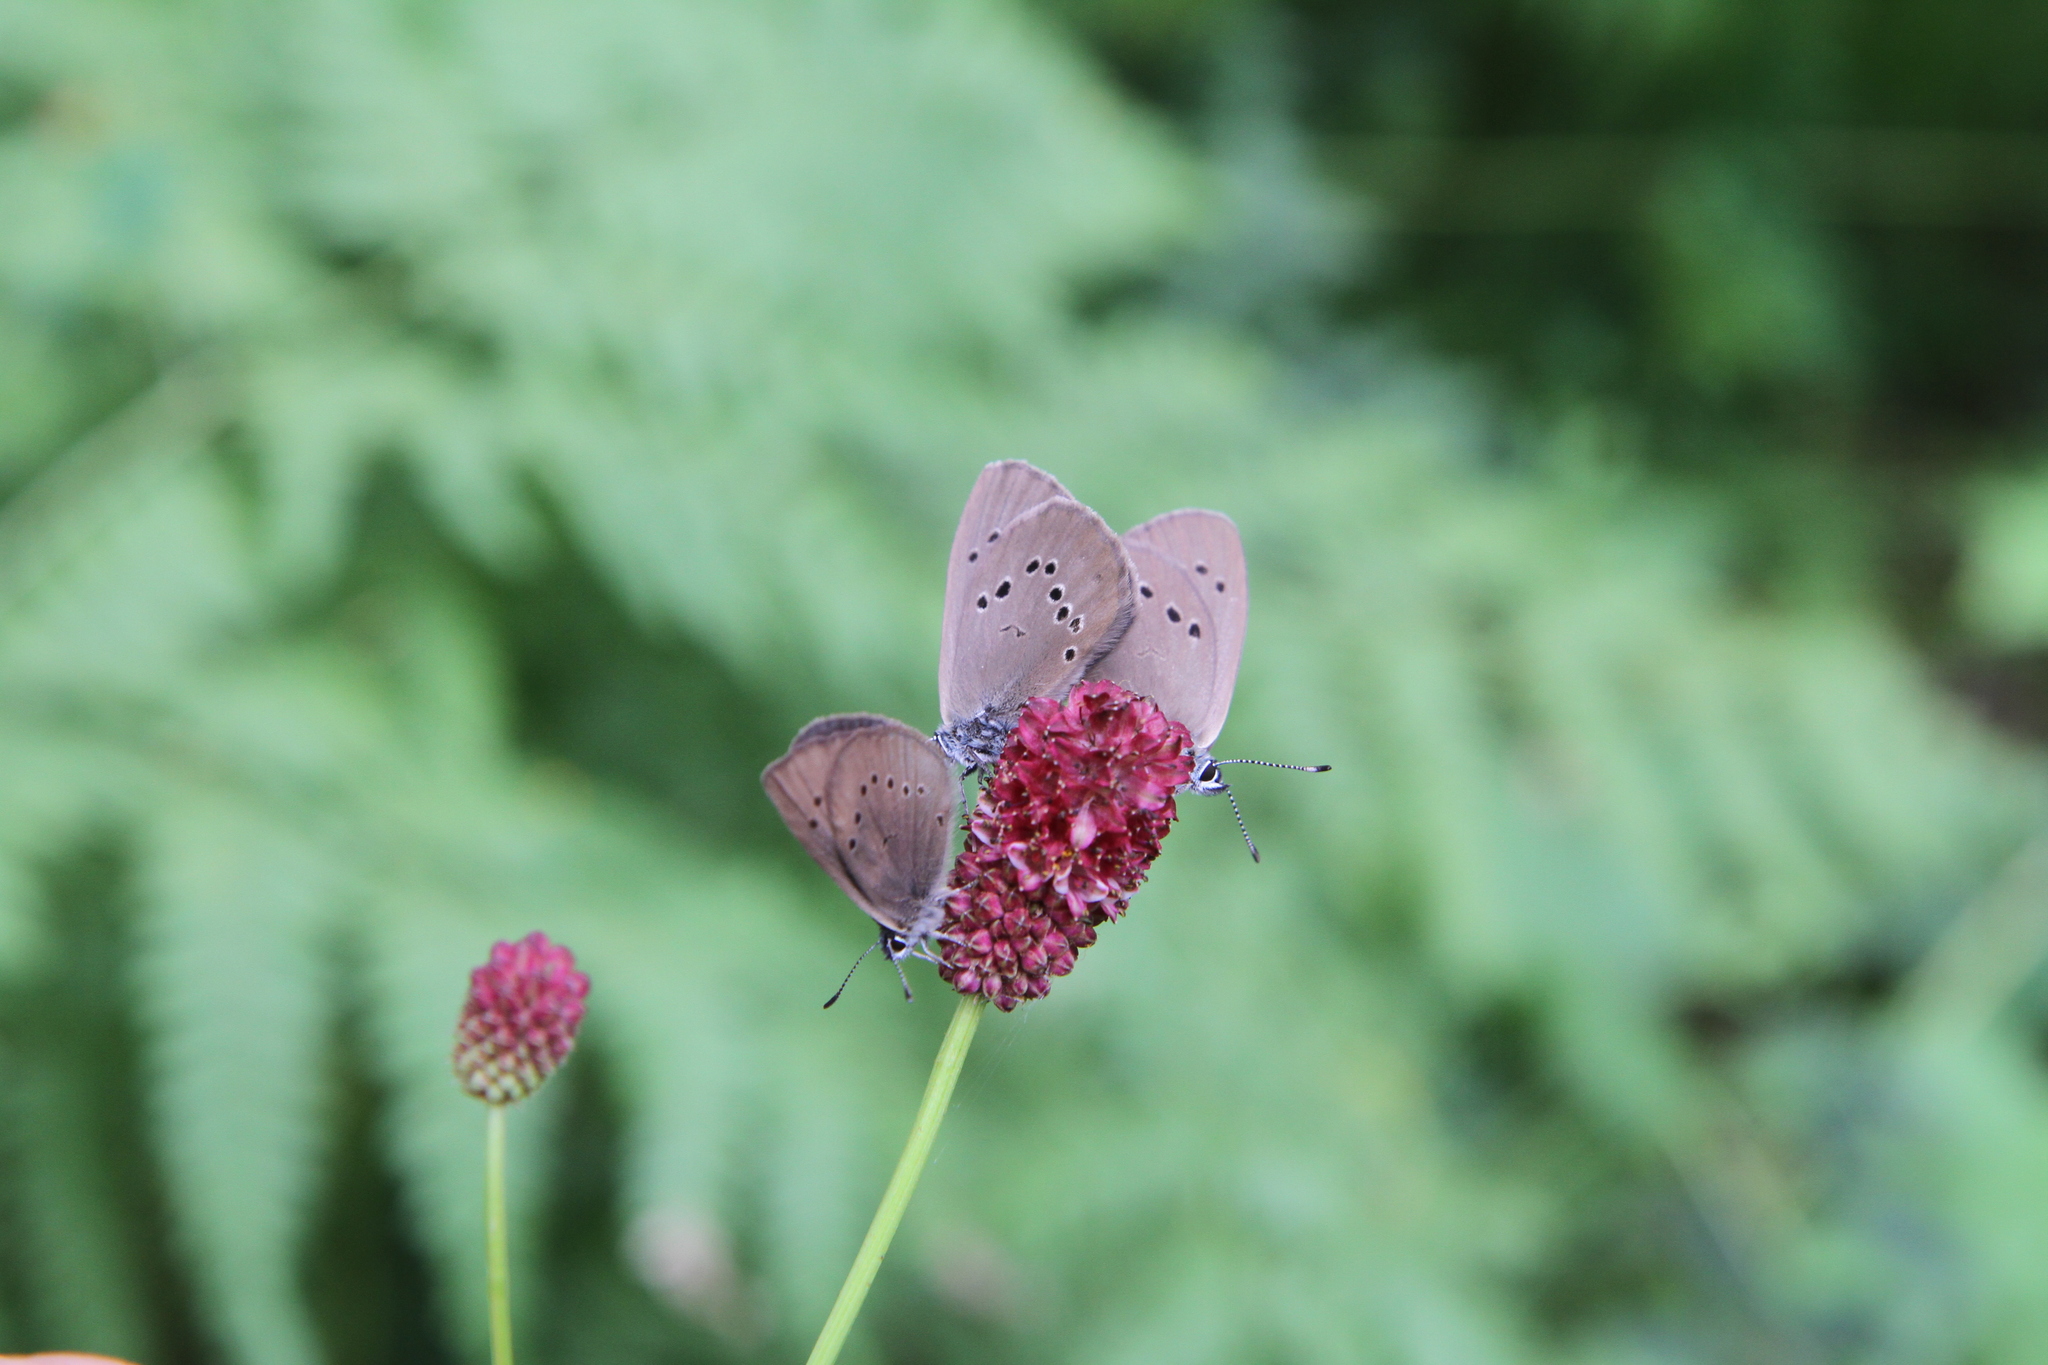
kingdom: Animalia
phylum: Arthropoda
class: Insecta
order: Lepidoptera
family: Lycaenidae
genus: Maculinea
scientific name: Maculinea nausithous
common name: Dusky large blue
